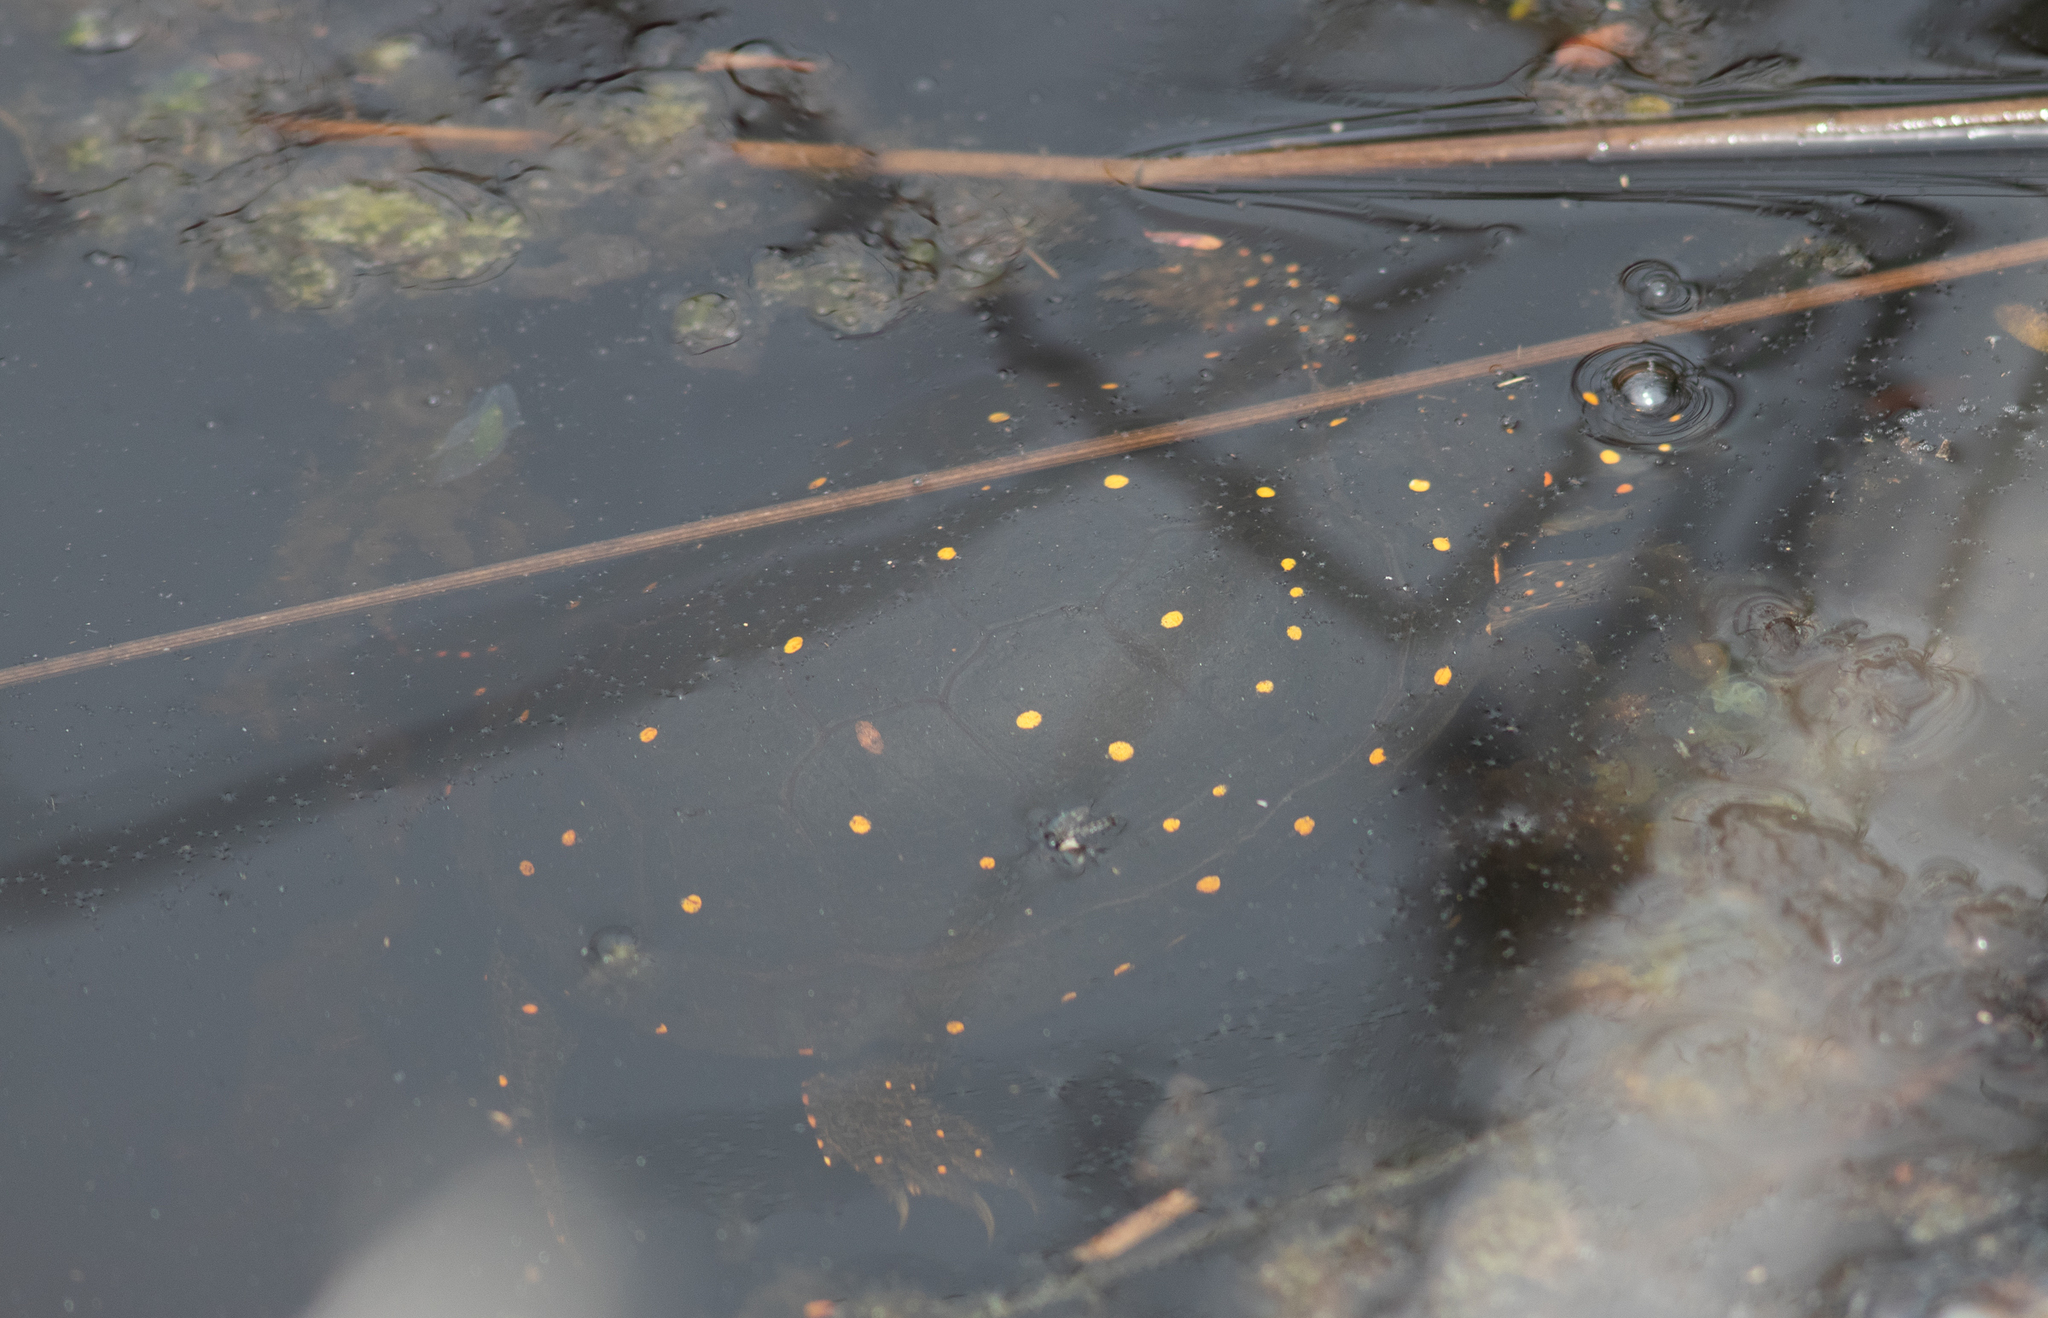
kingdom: Animalia
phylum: Chordata
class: Testudines
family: Emydidae
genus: Clemmys
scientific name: Clemmys guttata
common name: Spotted turtle
